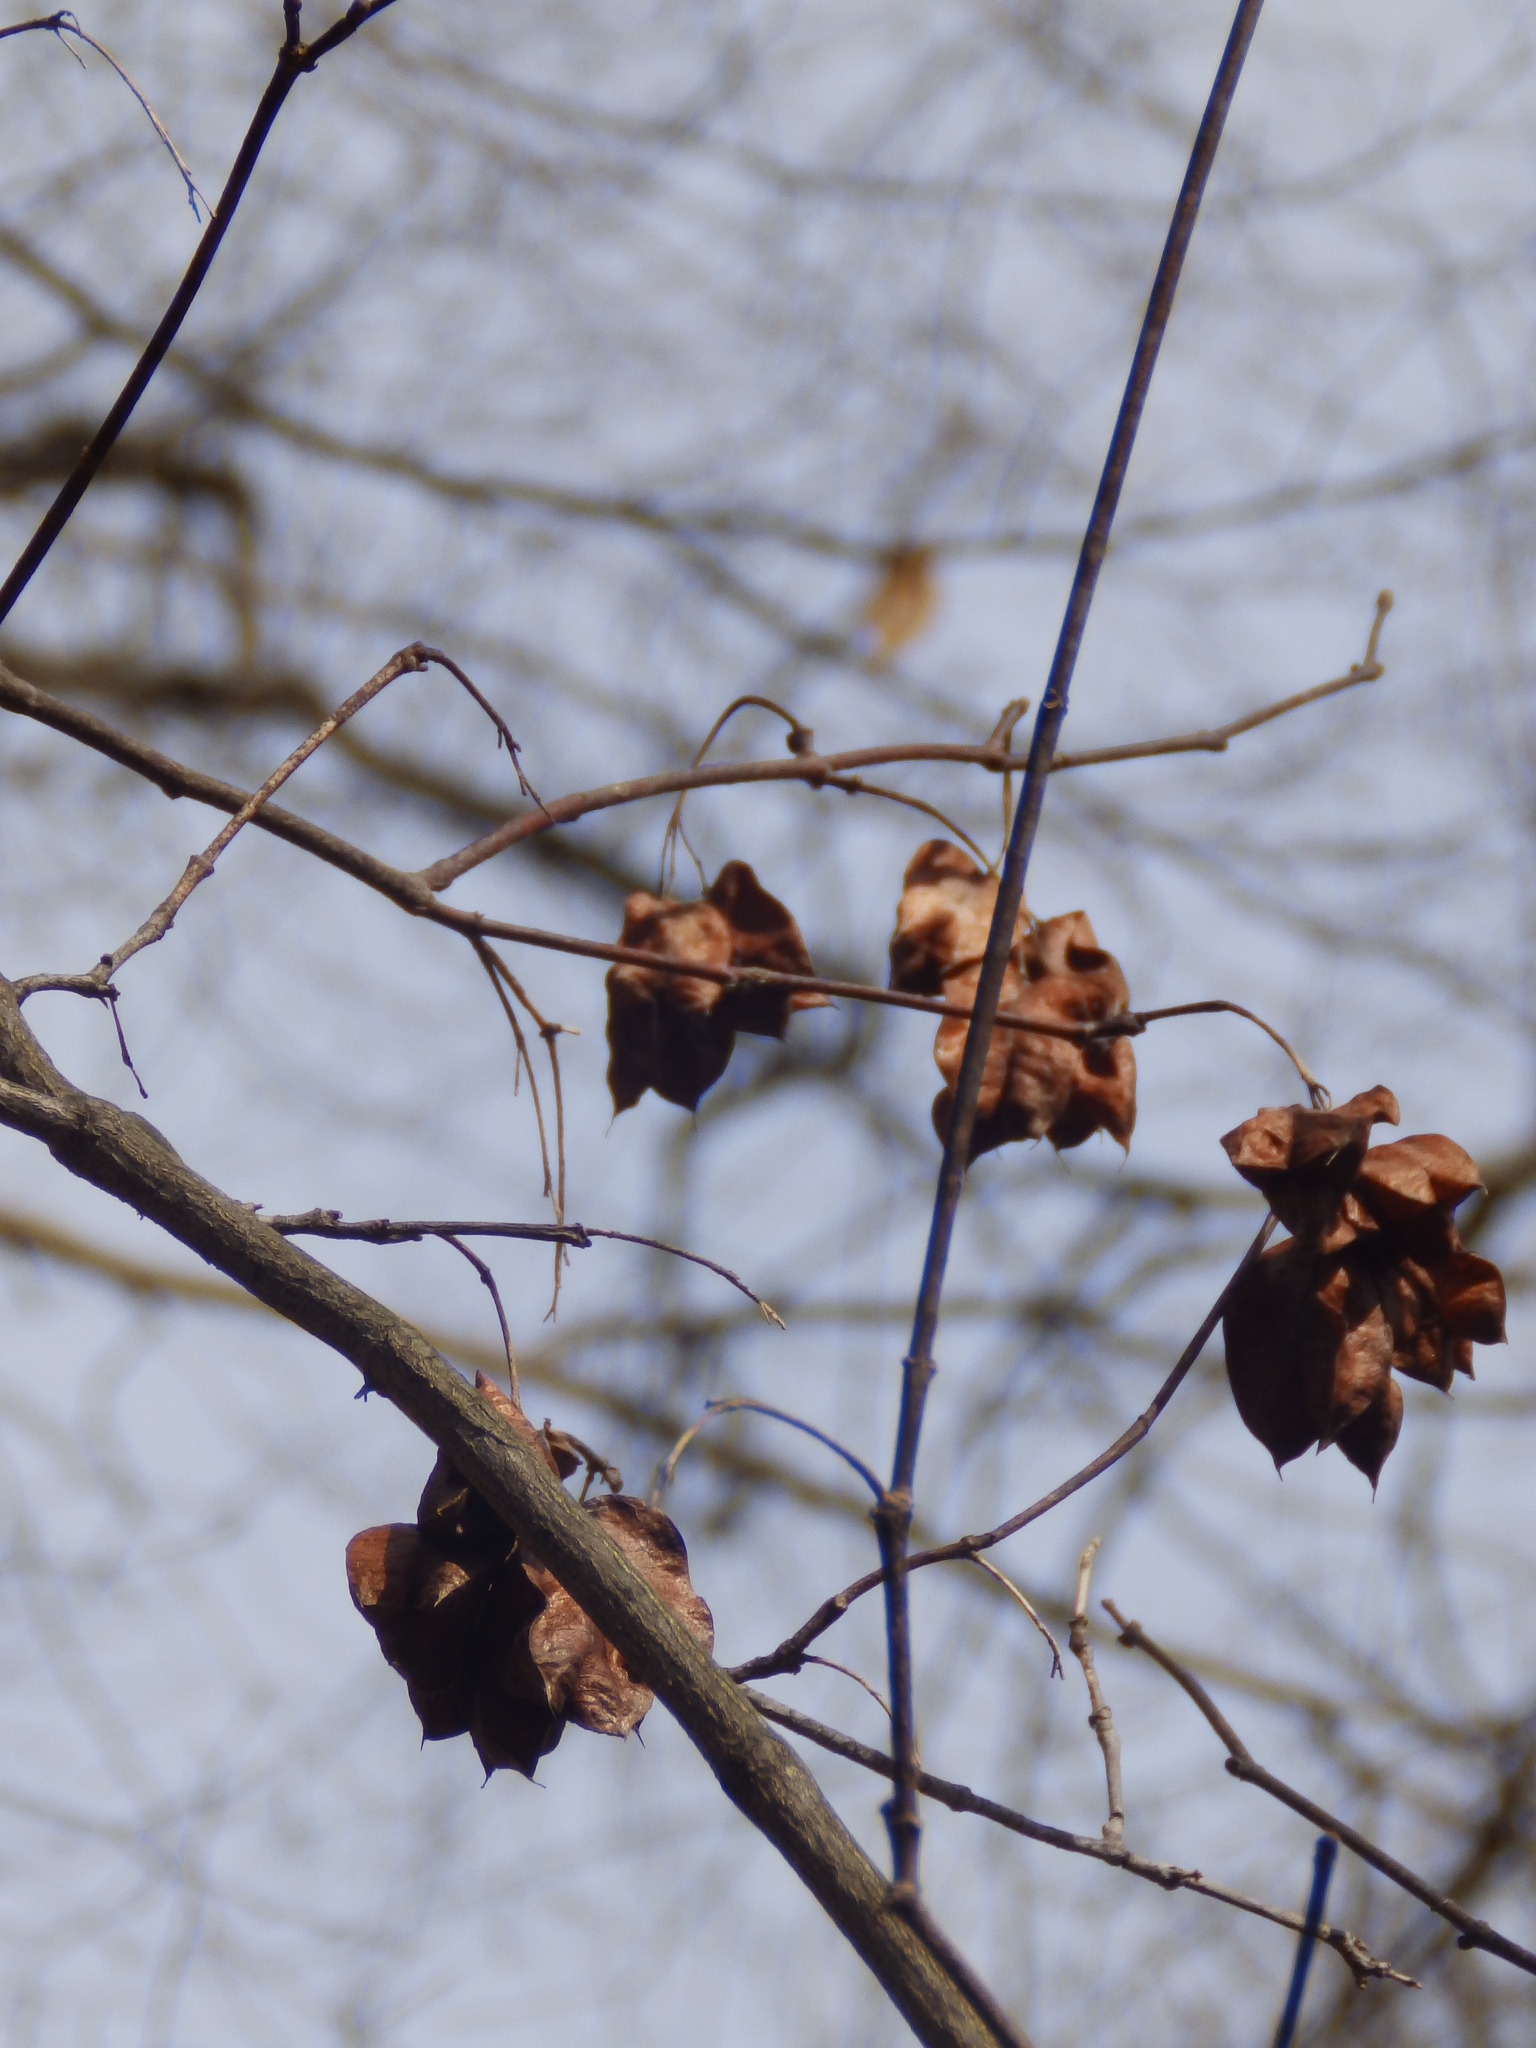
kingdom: Plantae
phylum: Tracheophyta
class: Magnoliopsida
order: Crossosomatales
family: Staphyleaceae
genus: Staphylea
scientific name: Staphylea trifolia
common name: American bladdernut
